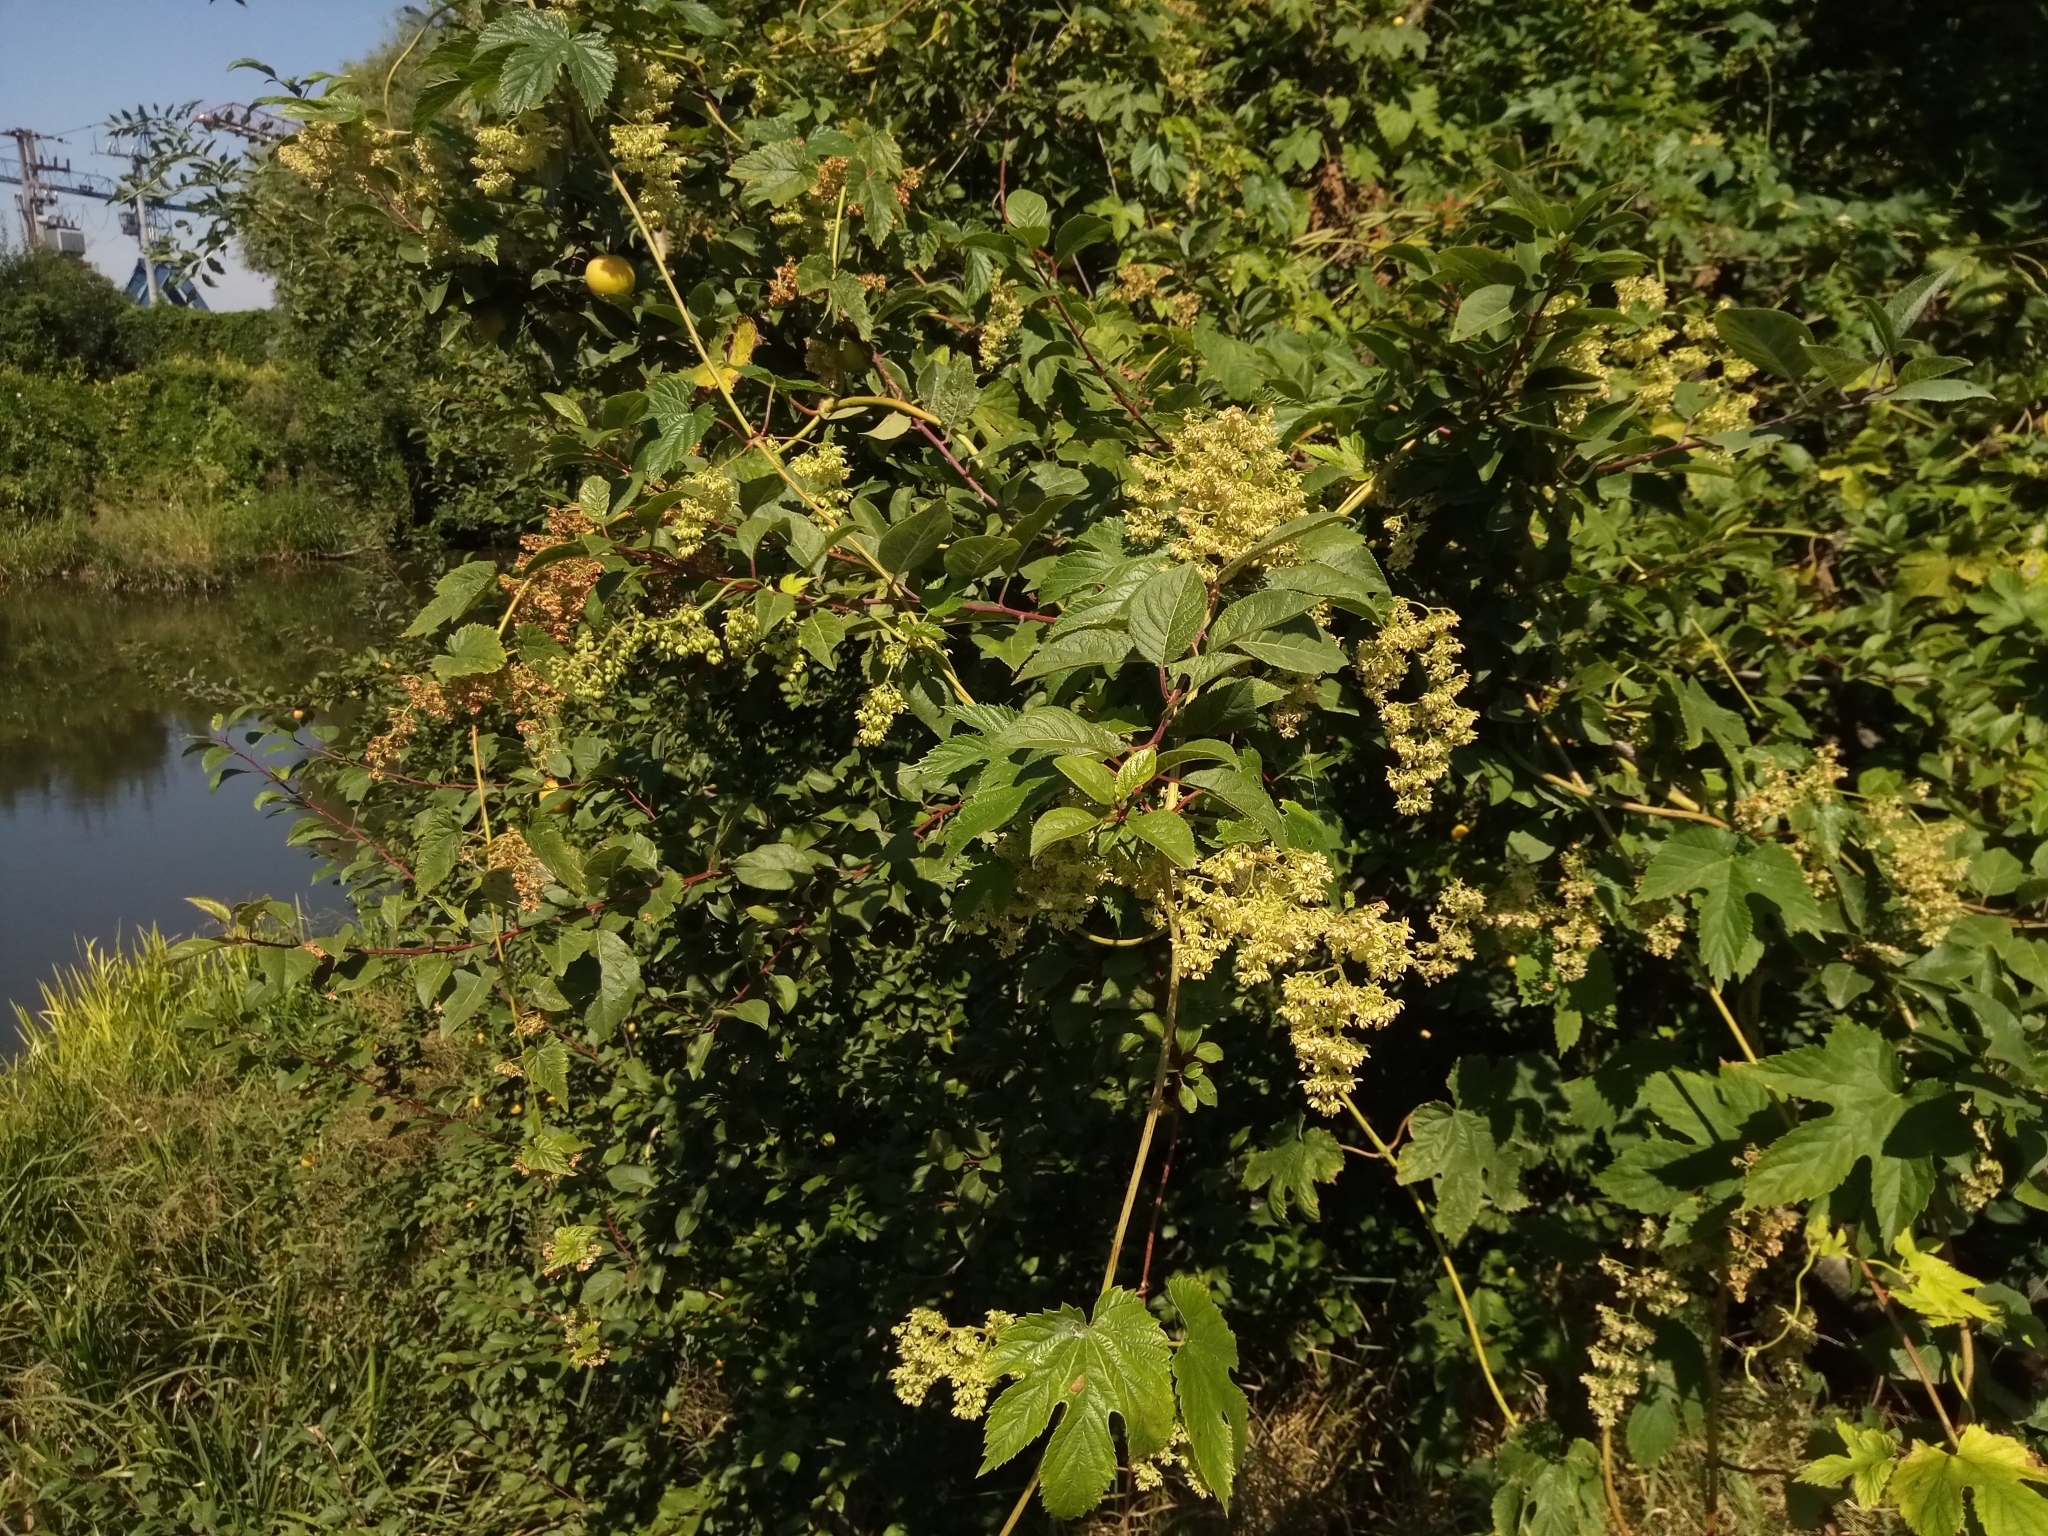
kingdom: Plantae
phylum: Tracheophyta
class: Magnoliopsida
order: Rosales
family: Cannabaceae
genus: Humulus
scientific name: Humulus lupulus
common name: Hop
